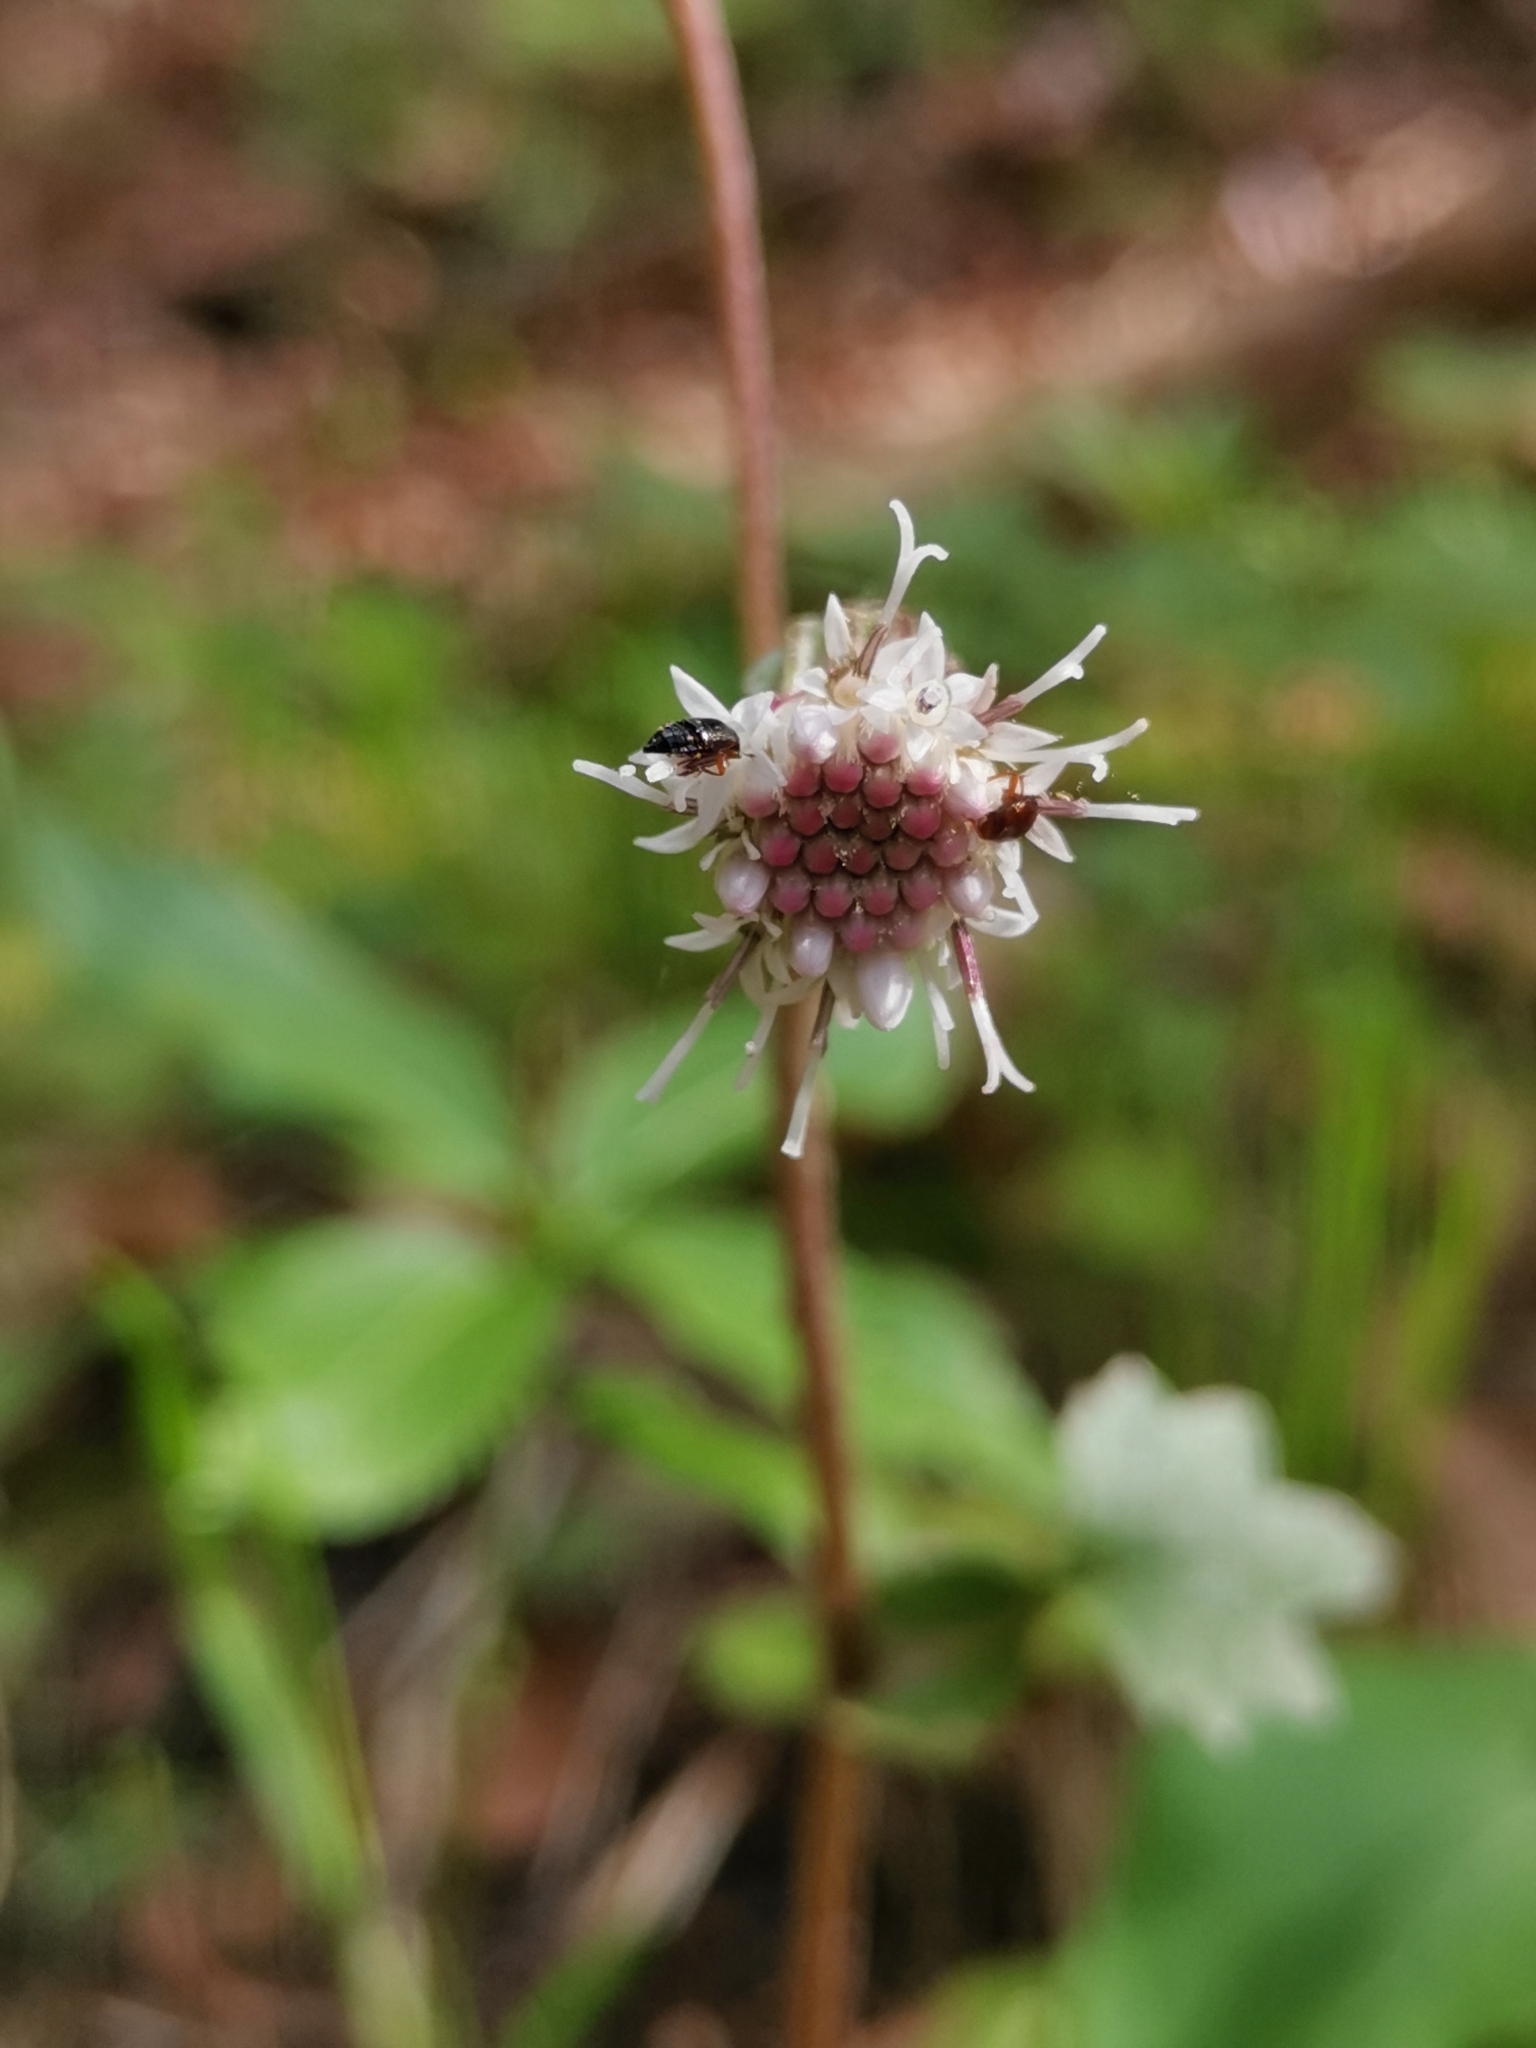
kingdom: Plantae
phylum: Tracheophyta
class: Magnoliopsida
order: Asterales
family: Asteraceae
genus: Homogyne
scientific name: Homogyne sylvestris
